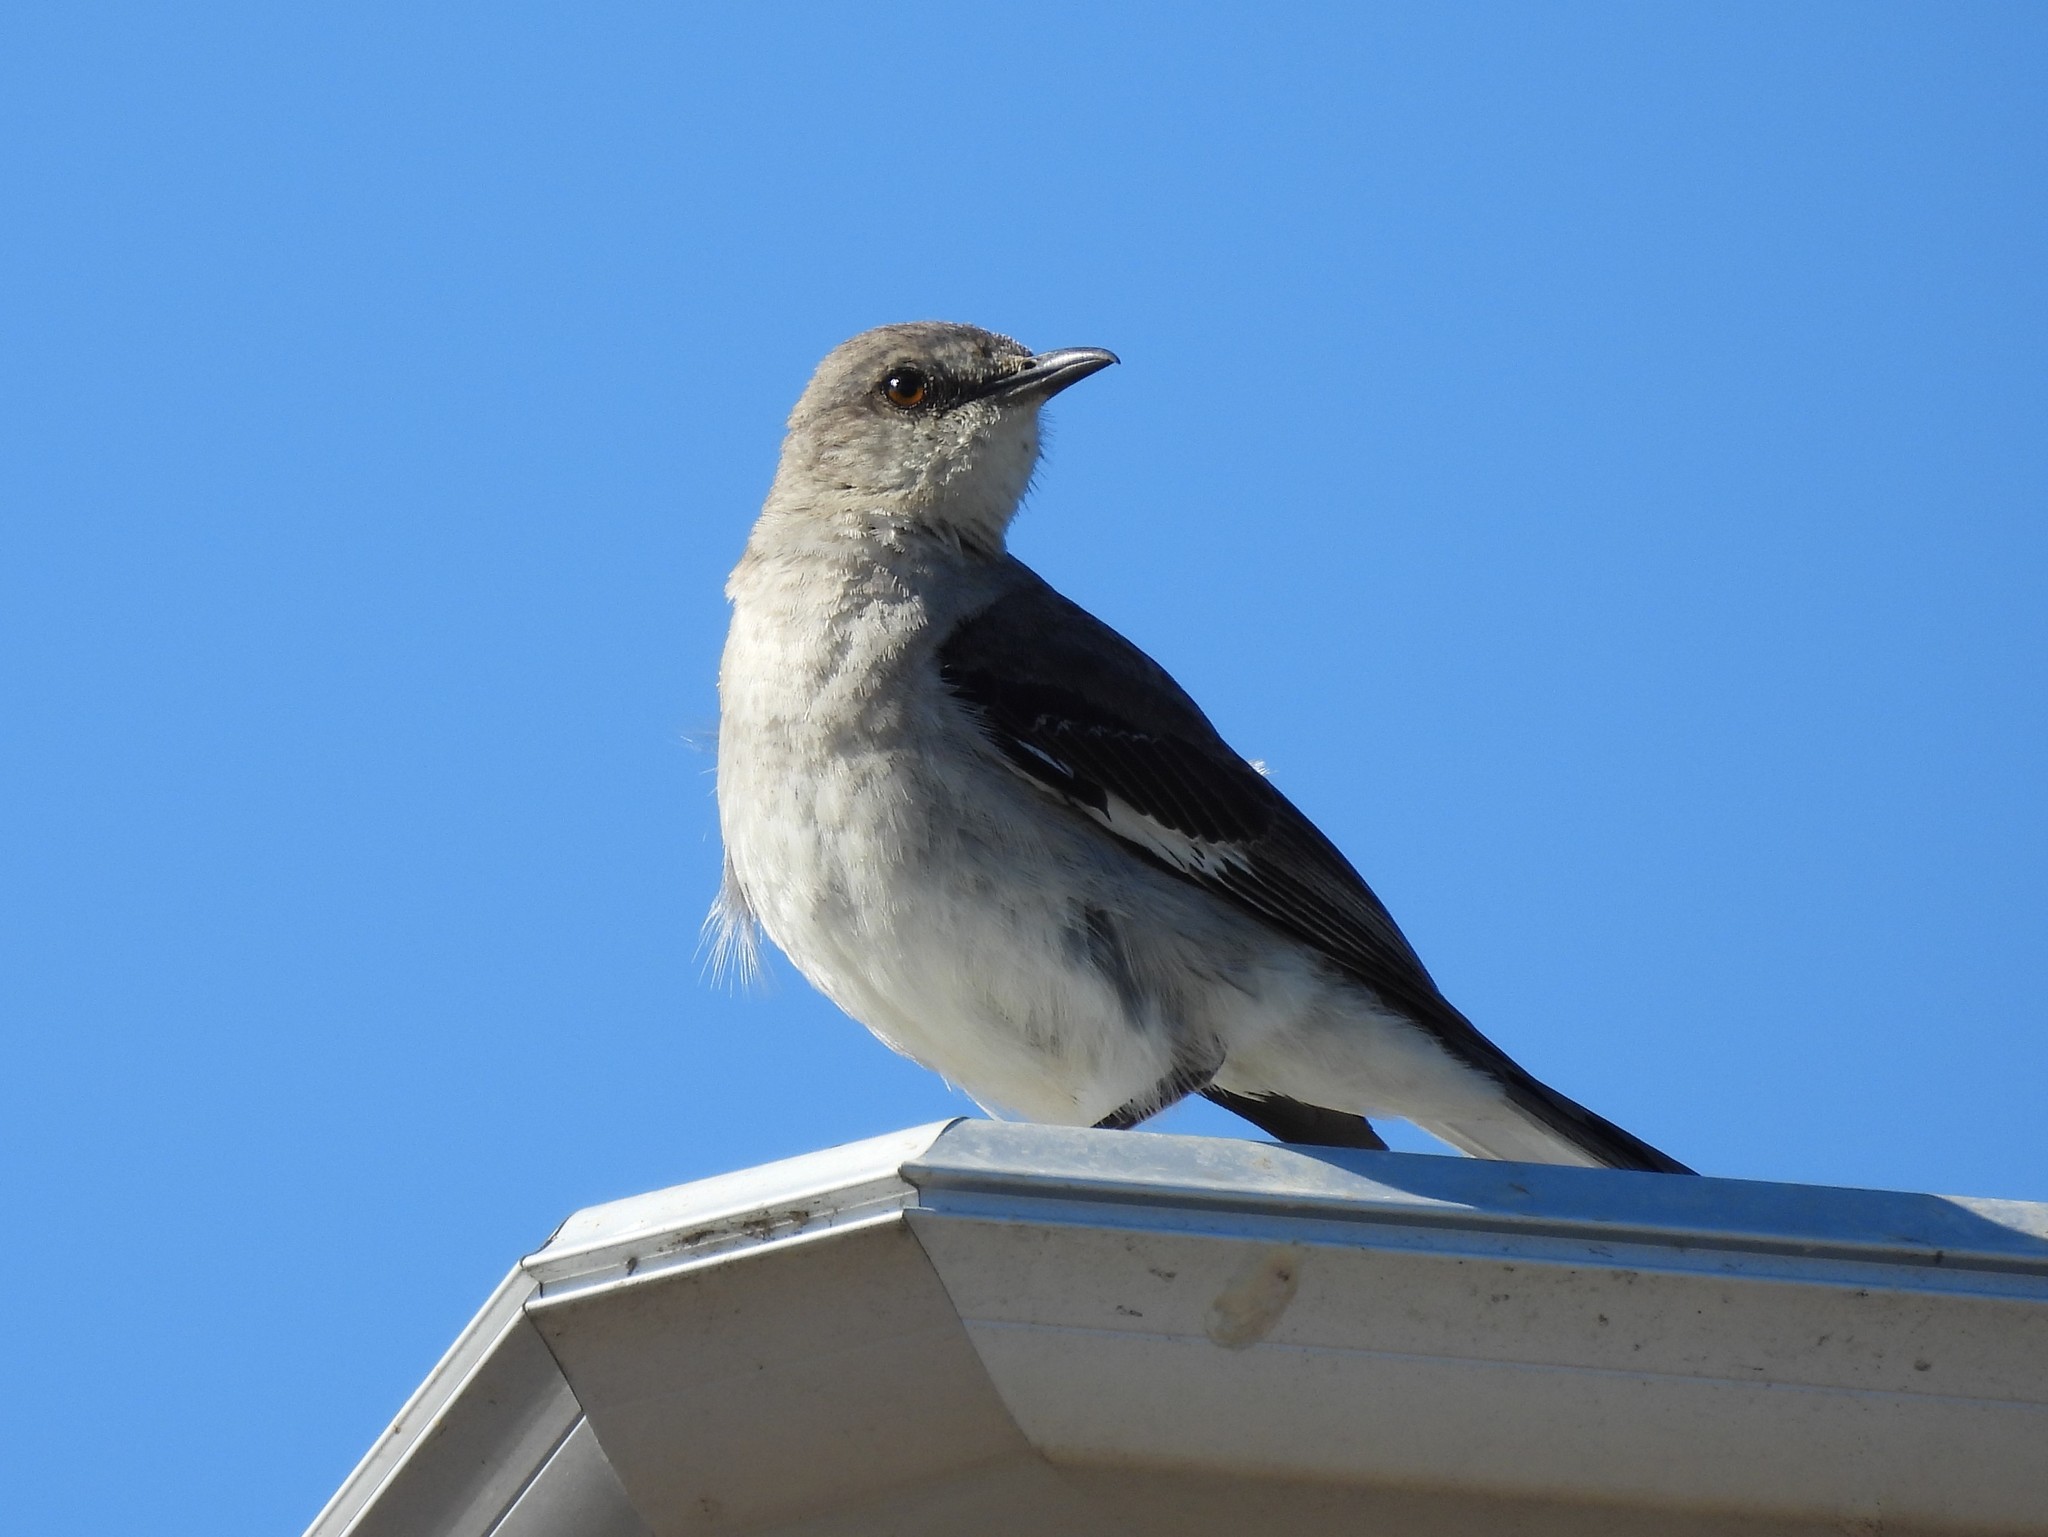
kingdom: Animalia
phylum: Chordata
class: Aves
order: Passeriformes
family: Mimidae
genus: Mimus
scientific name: Mimus polyglottos
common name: Northern mockingbird
